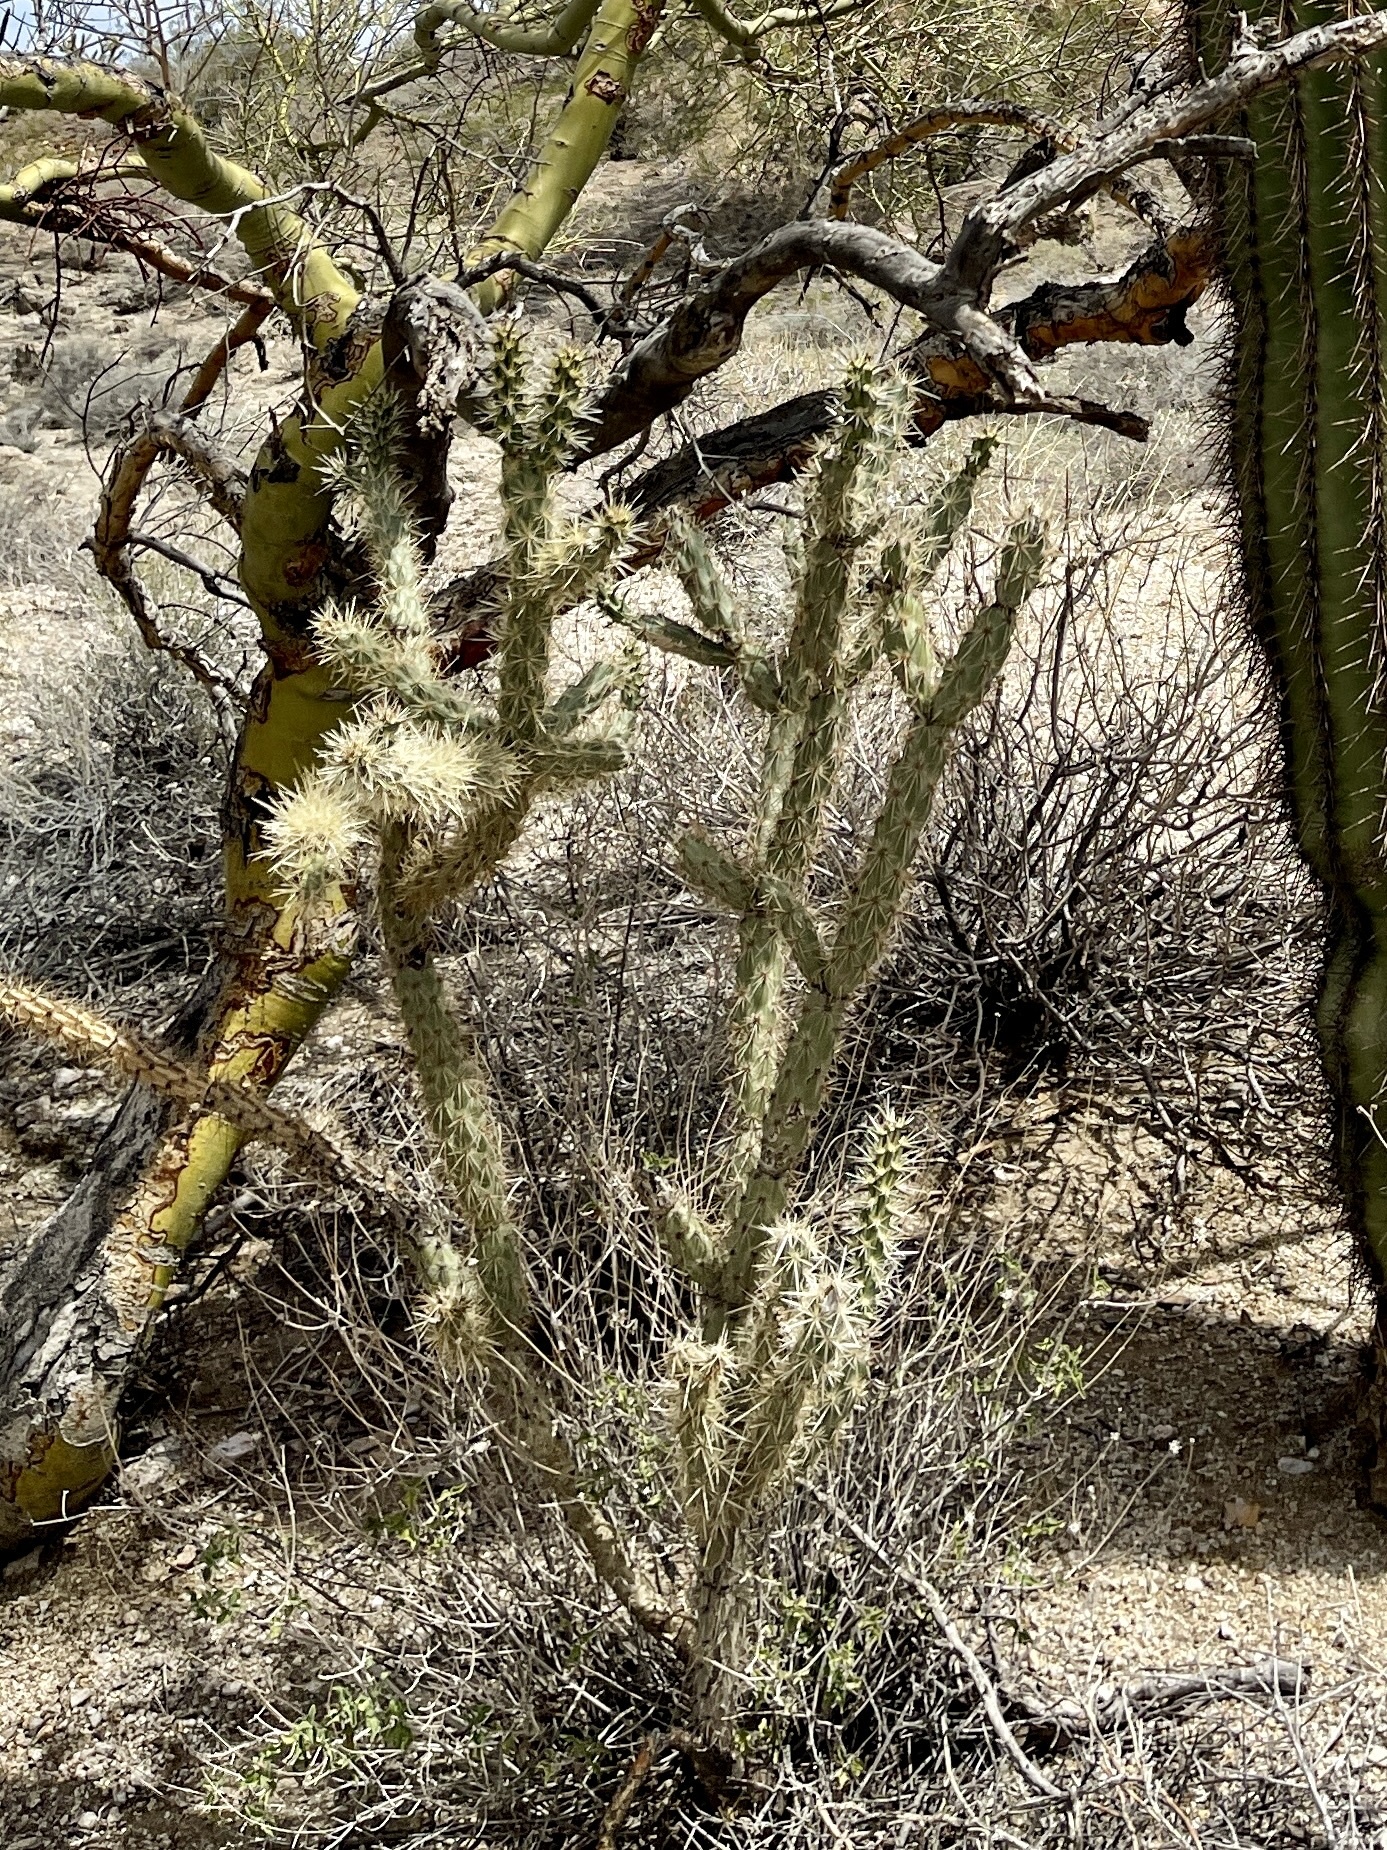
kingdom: Plantae
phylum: Tracheophyta
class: Magnoliopsida
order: Caryophyllales
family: Cactaceae
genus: Cylindropuntia
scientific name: Cylindropuntia acanthocarpa
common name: Buckhorn cholla
